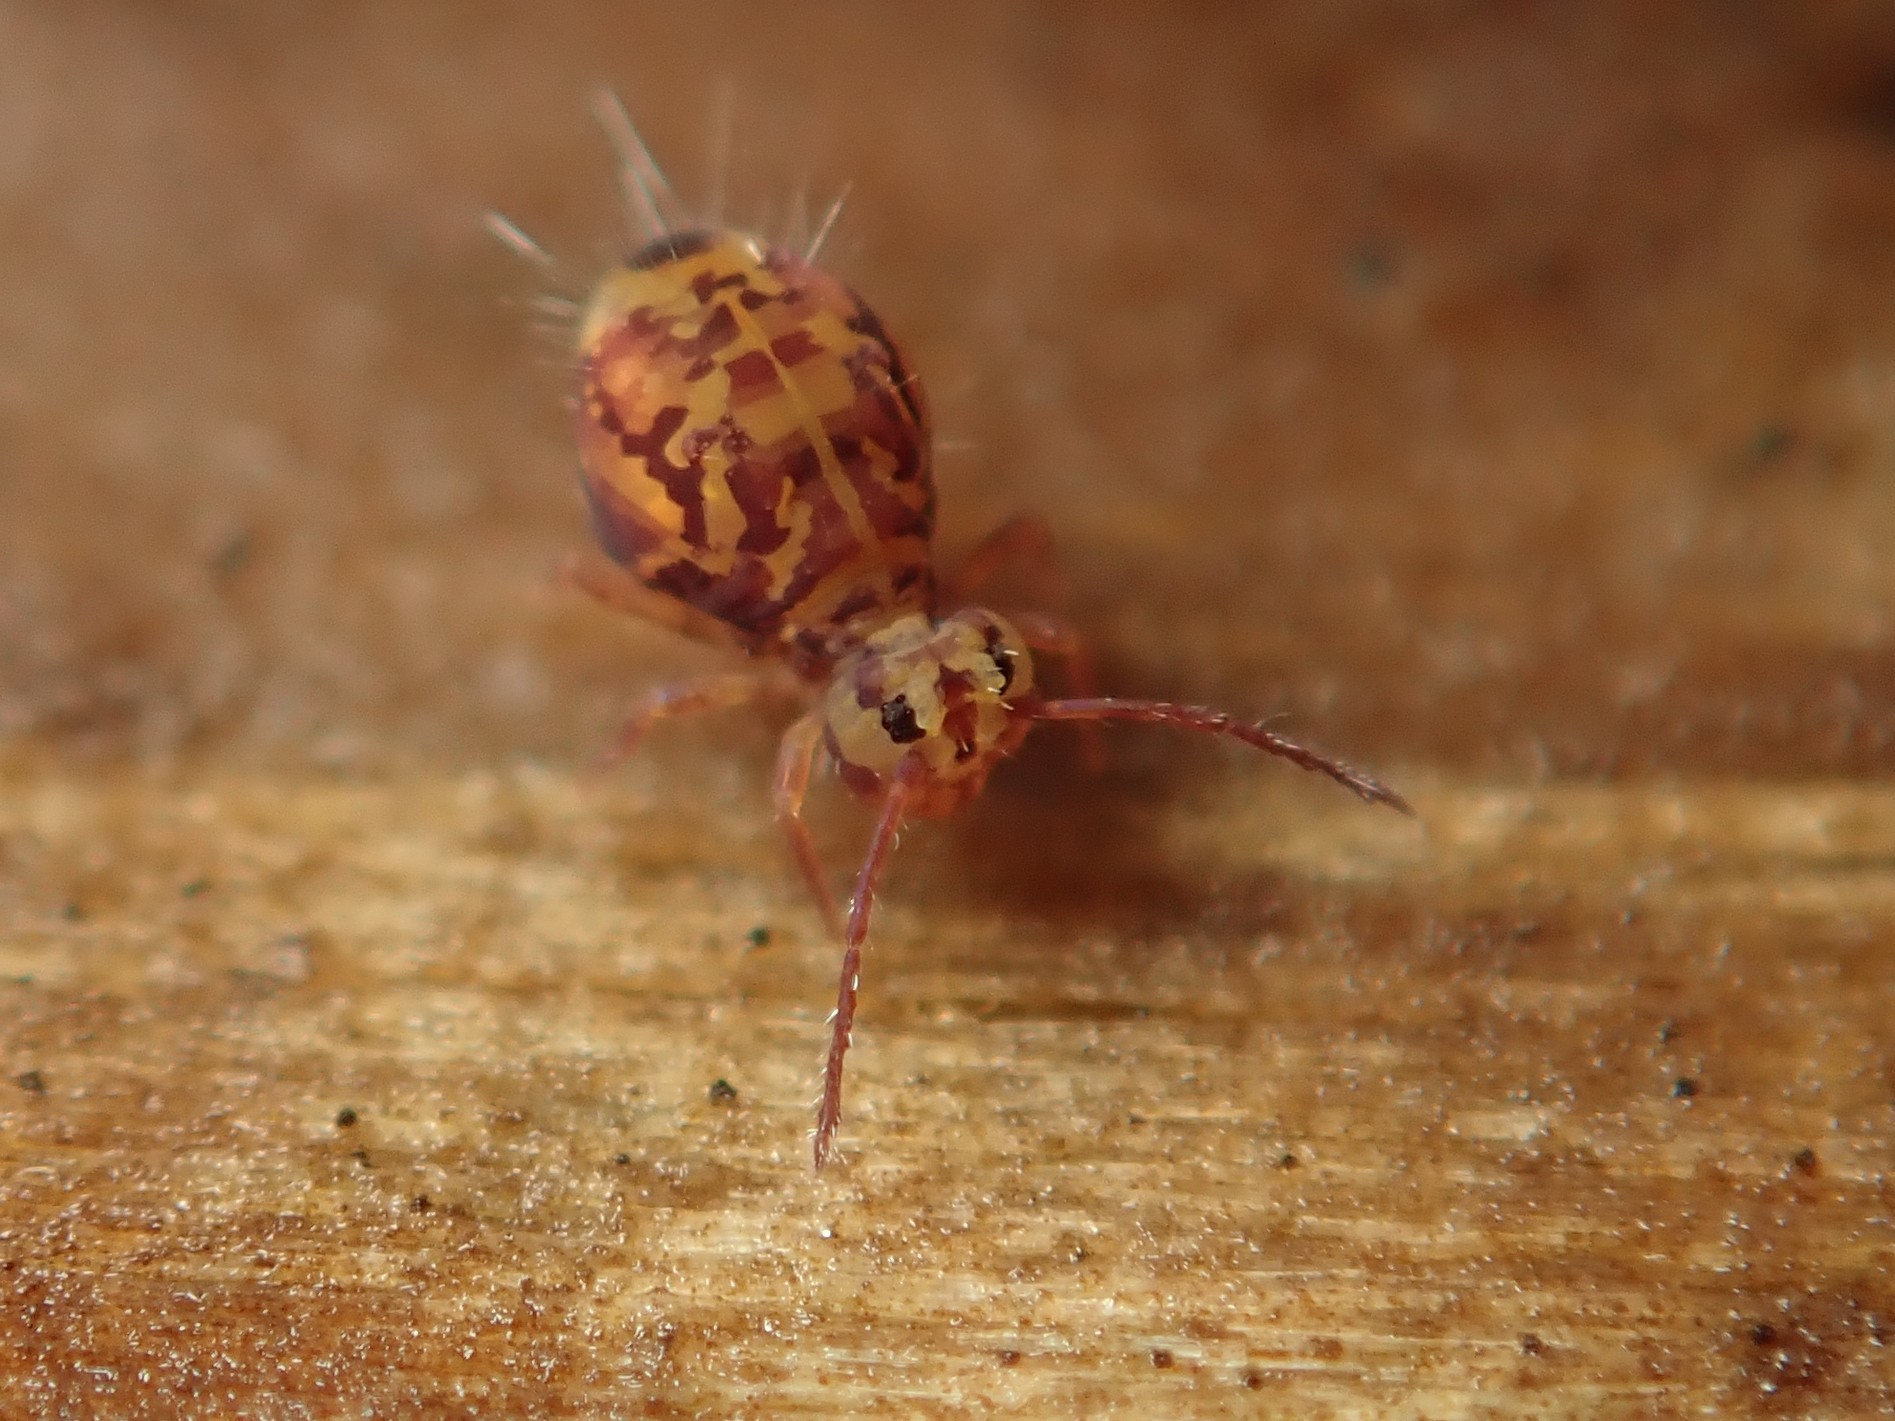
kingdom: Animalia
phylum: Arthropoda
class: Collembola
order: Symphypleona
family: Dicyrtomidae
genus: Dicyrtomina
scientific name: Dicyrtomina ornata
